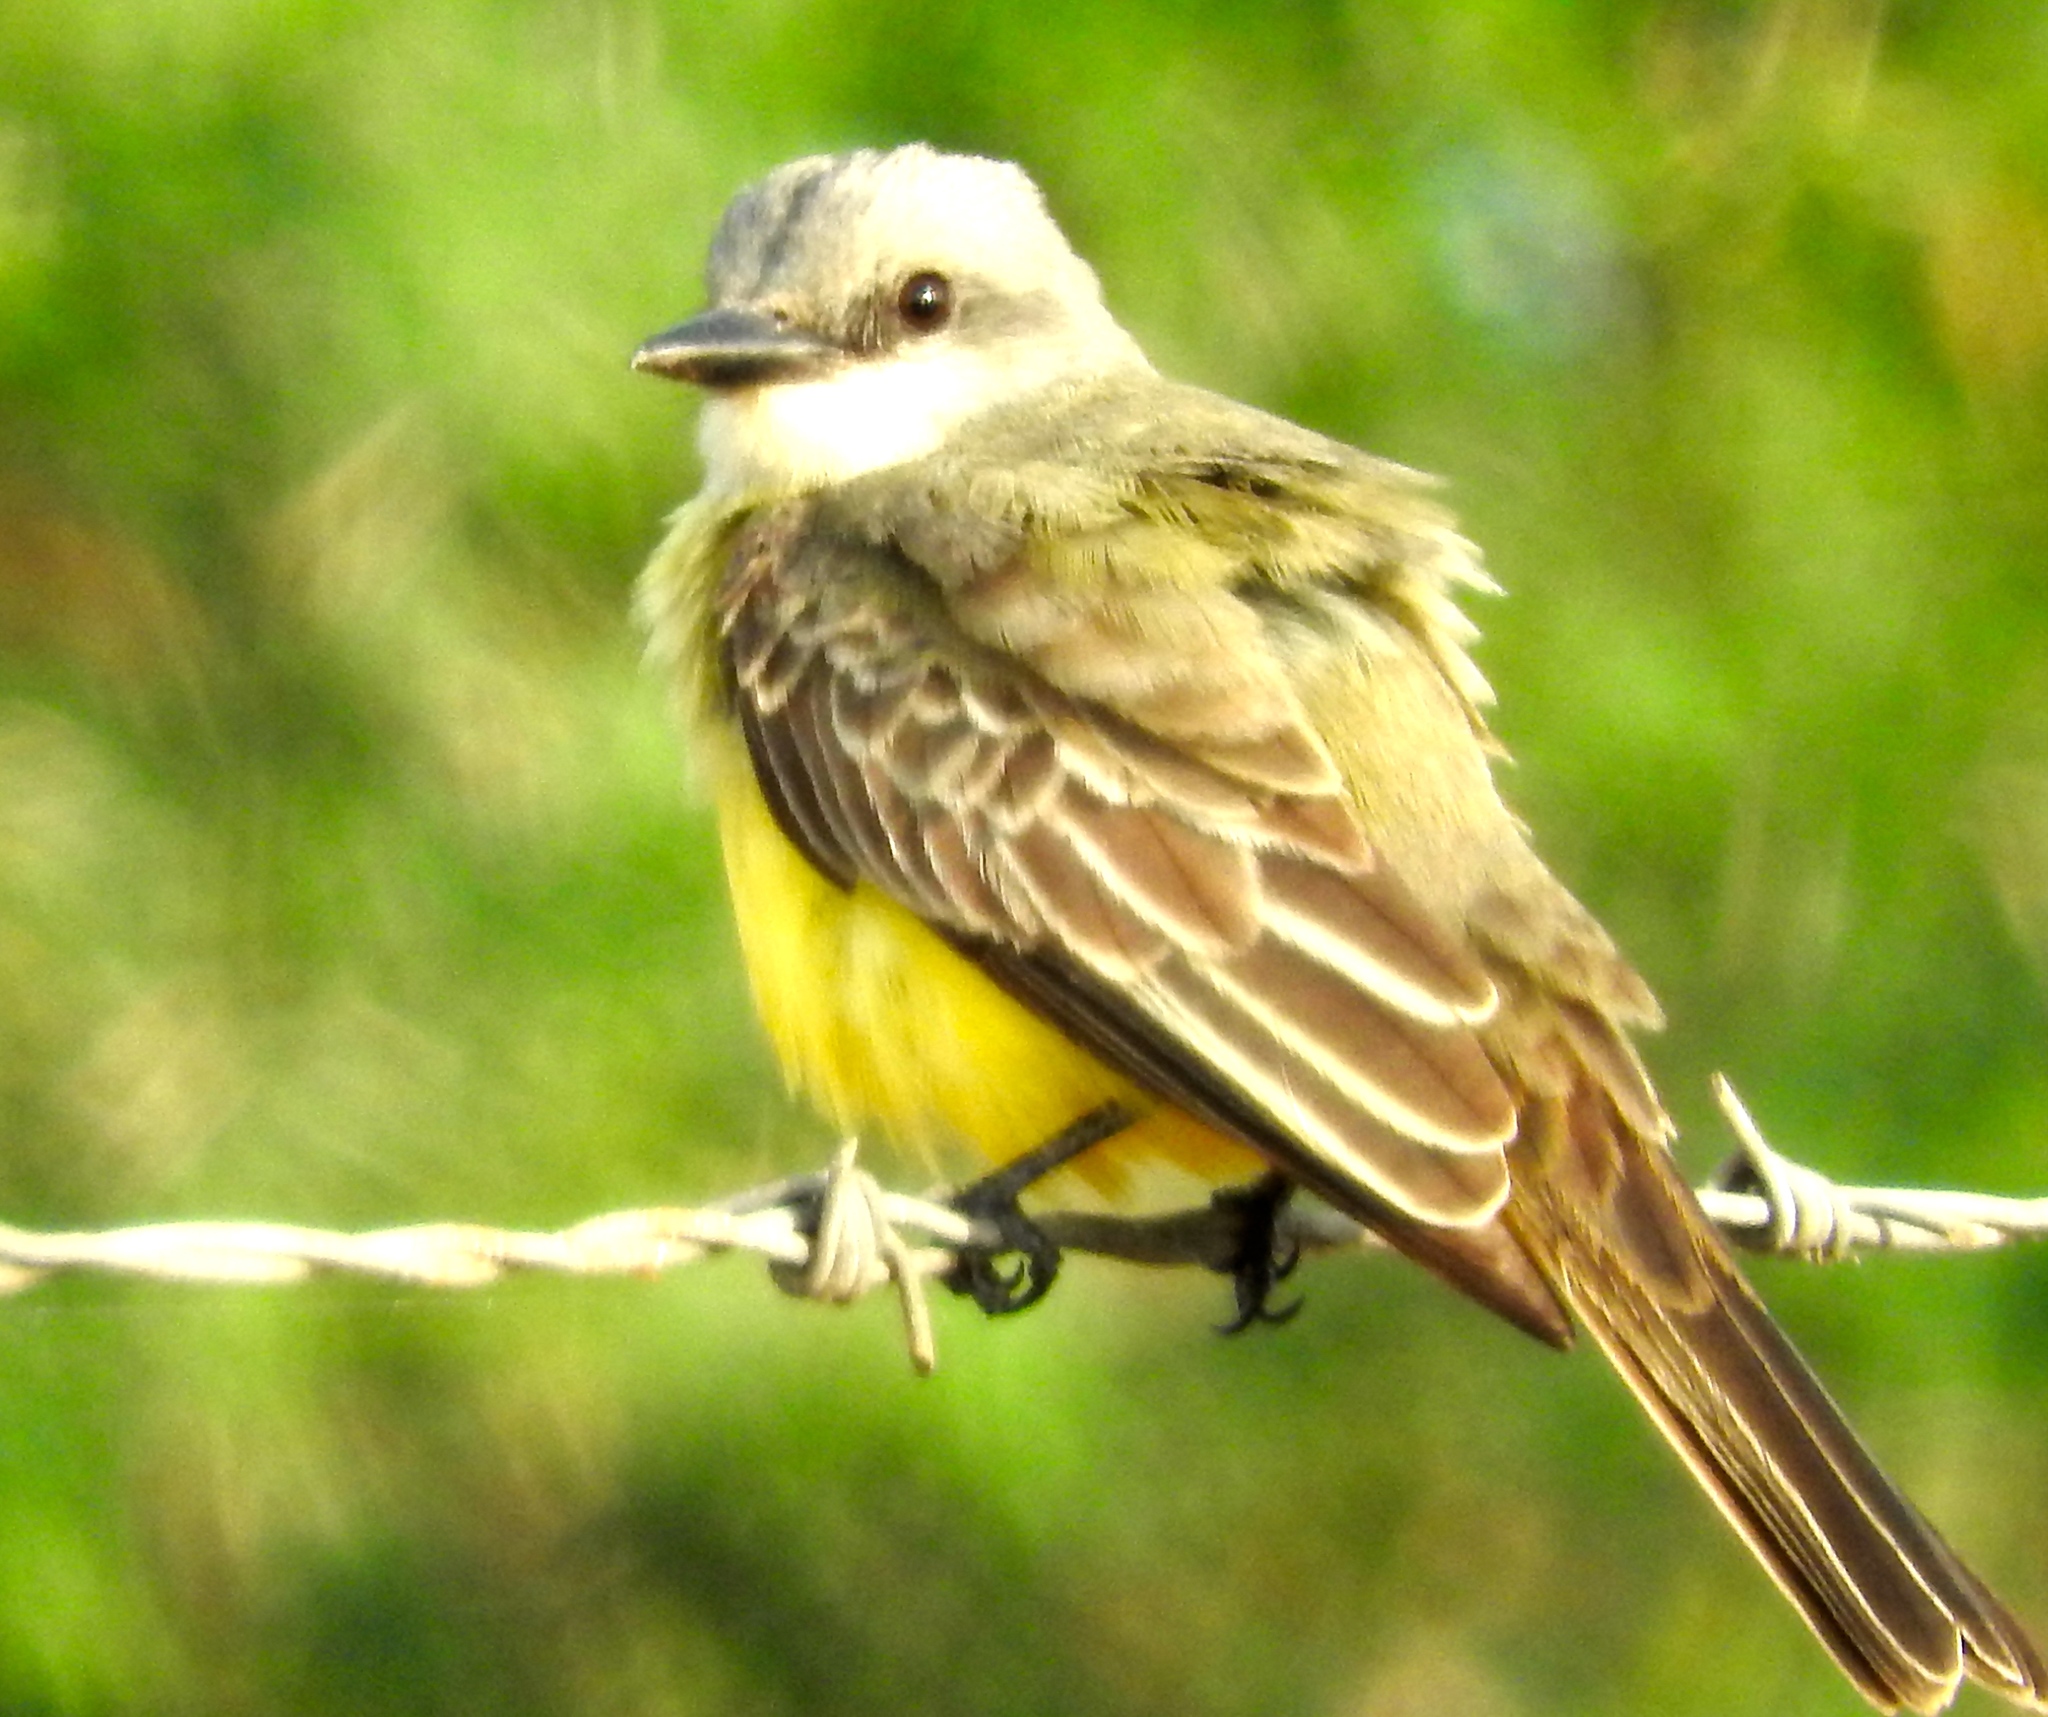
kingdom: Animalia
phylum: Chordata
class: Aves
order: Passeriformes
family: Tyrannidae
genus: Tyrannus
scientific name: Tyrannus melancholicus
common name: Tropical kingbird
